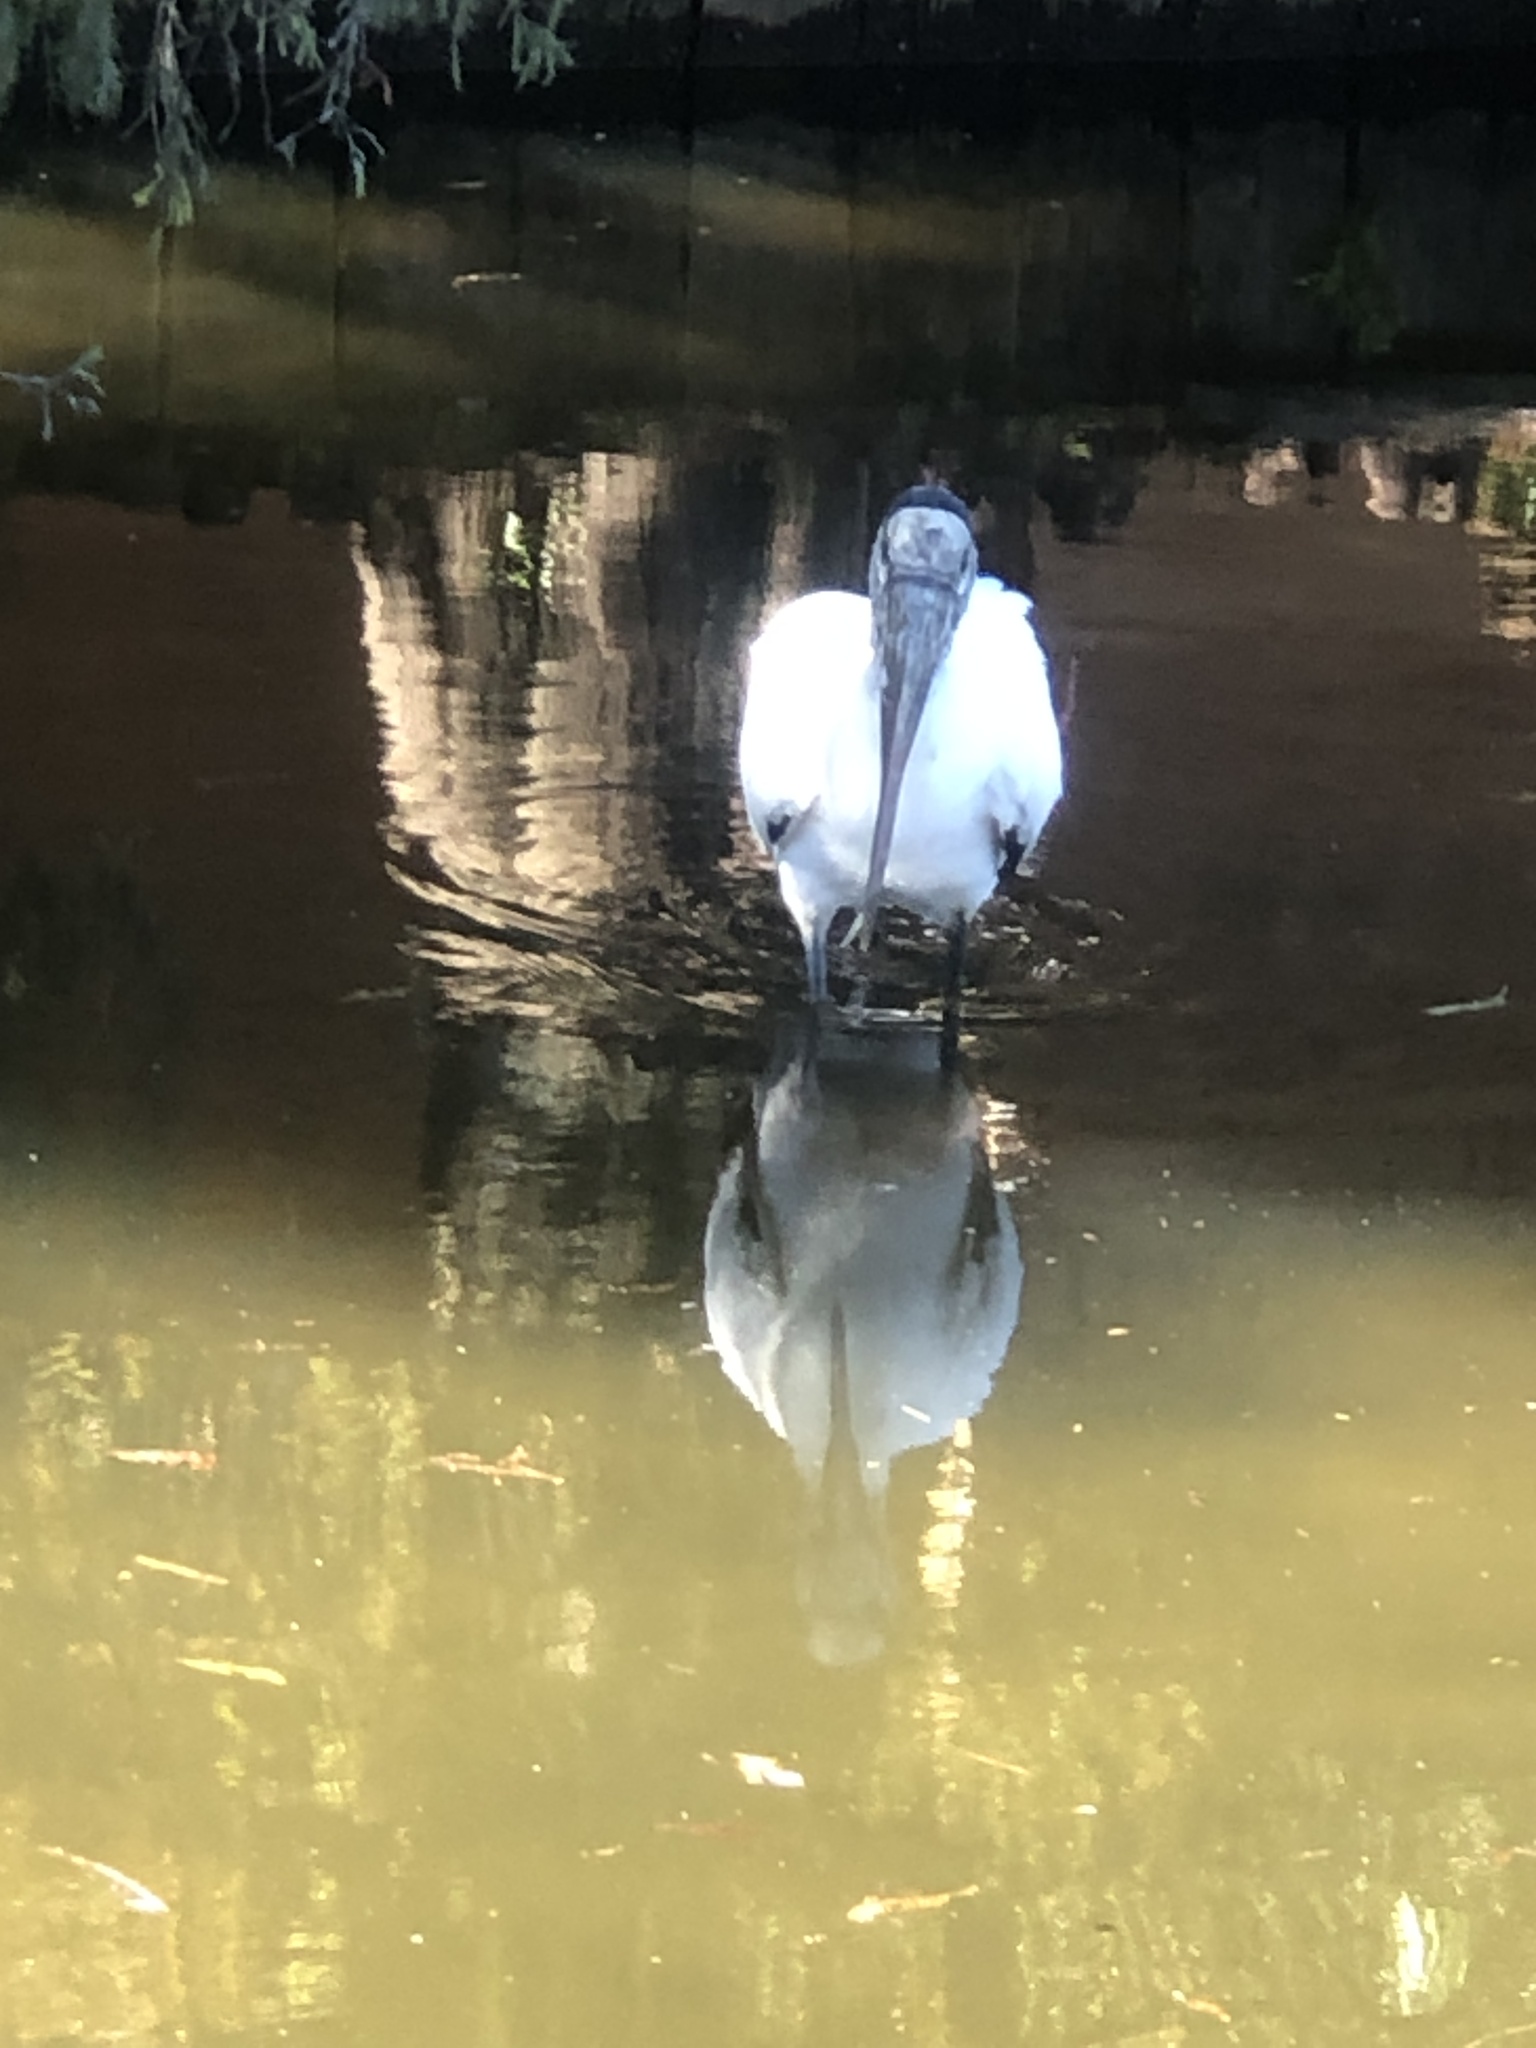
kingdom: Animalia
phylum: Chordata
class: Aves
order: Ciconiiformes
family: Ciconiidae
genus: Mycteria
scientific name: Mycteria americana
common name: Wood stork
